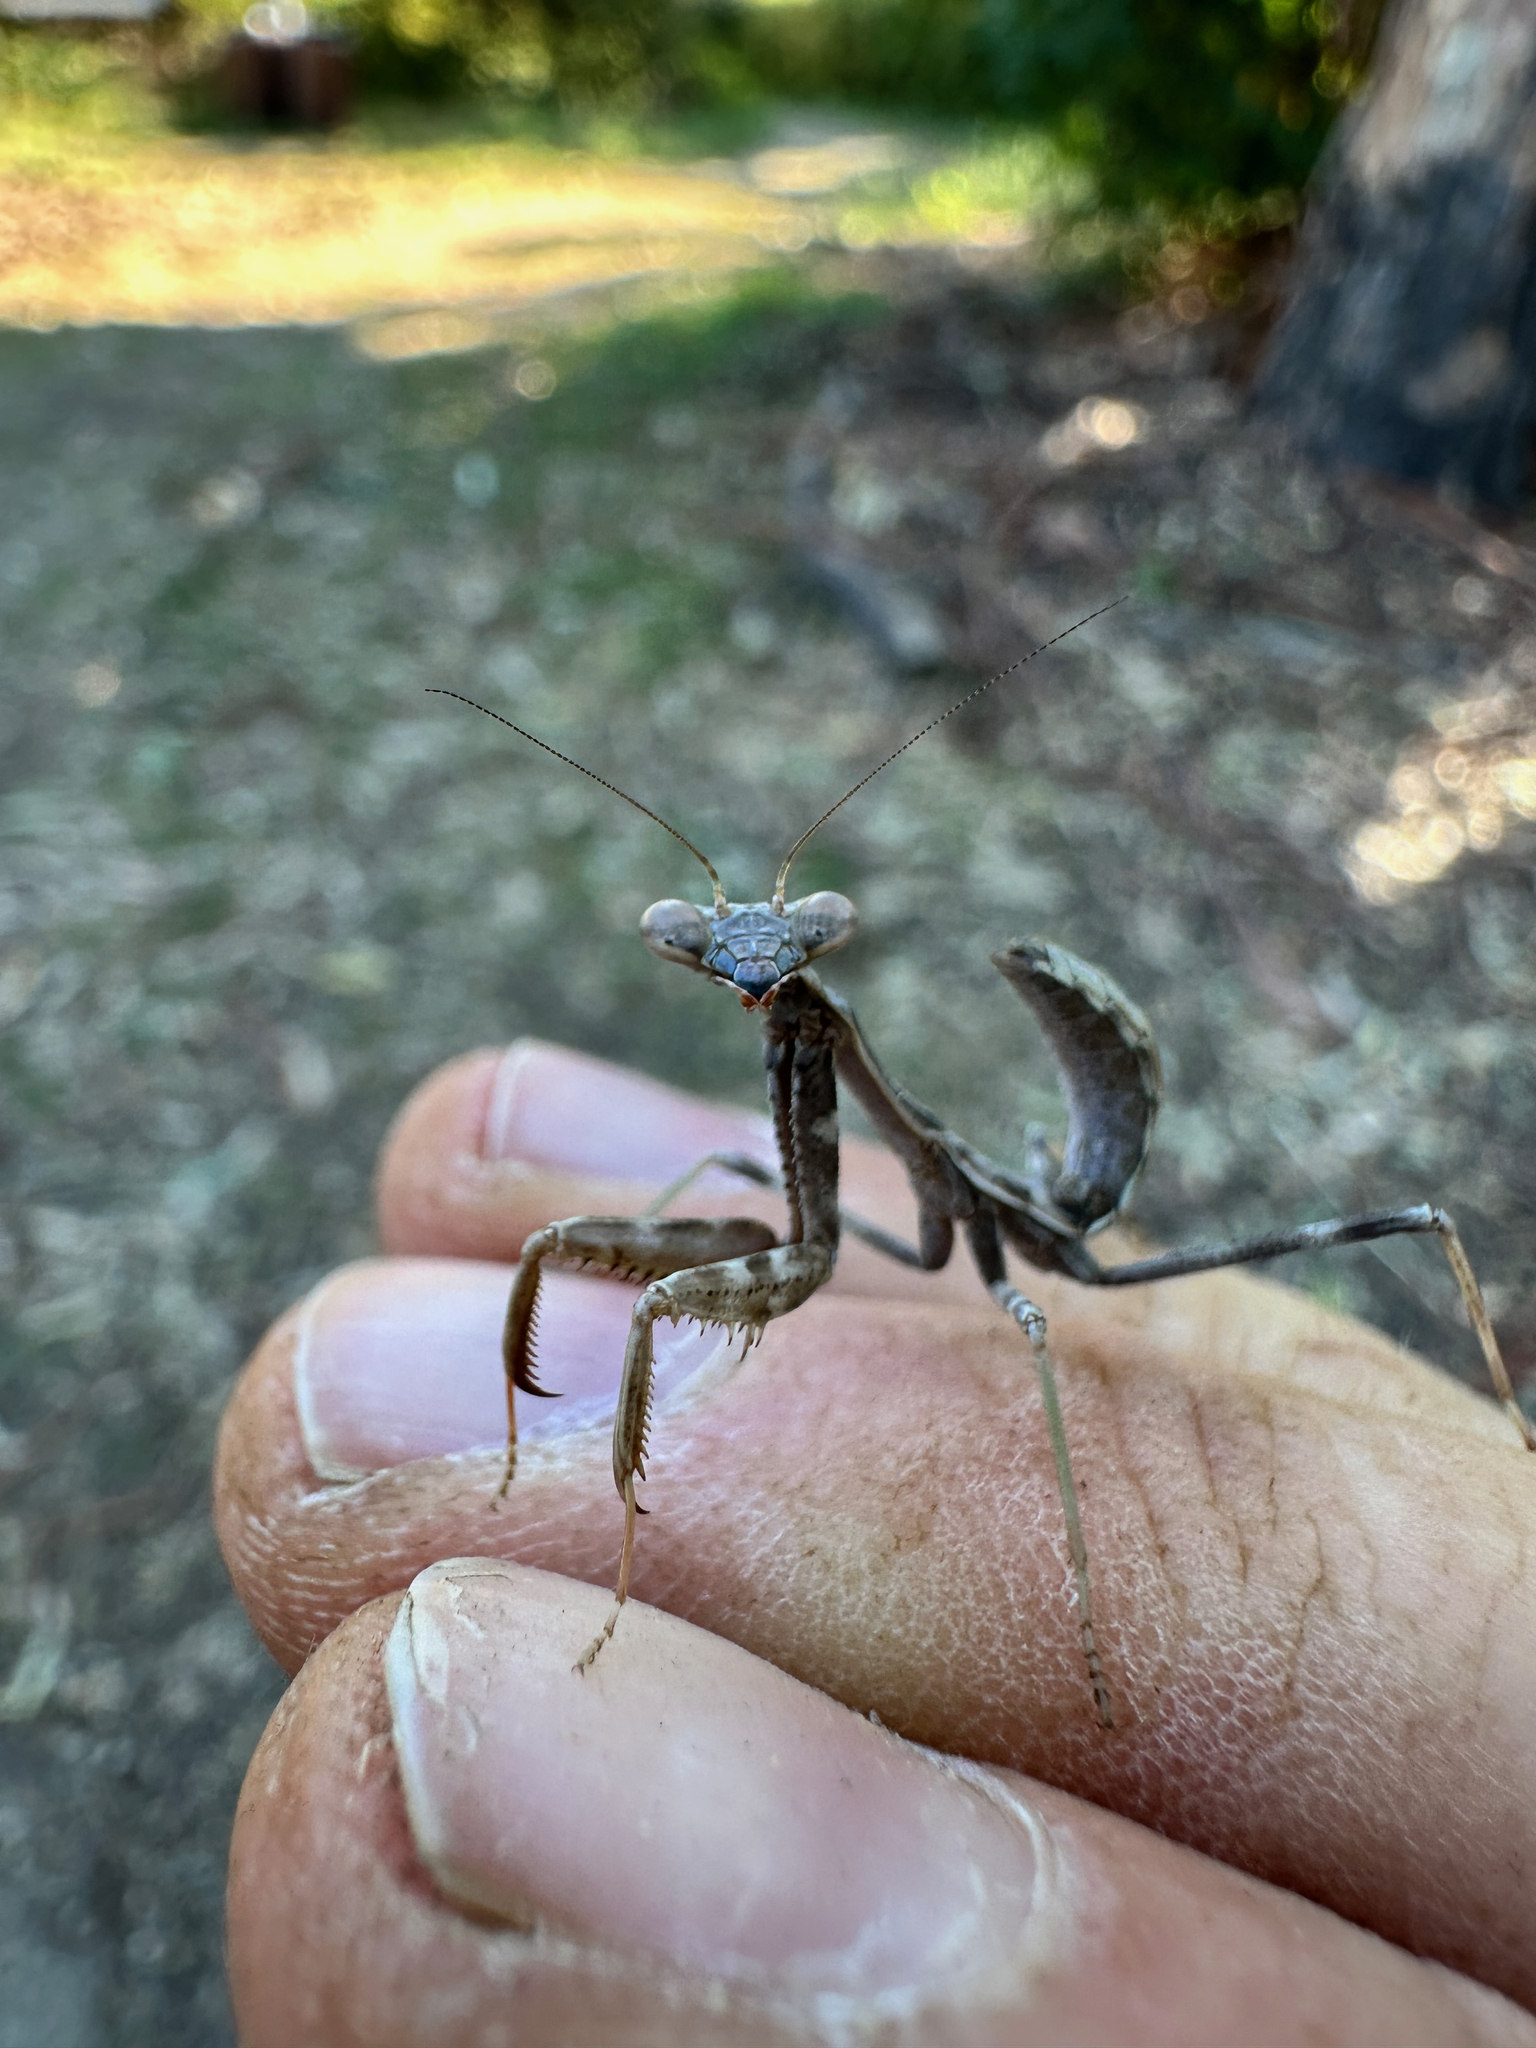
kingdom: Animalia
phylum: Arthropoda
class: Insecta
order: Mantodea
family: Mantidae
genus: Stagmomantis
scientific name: Stagmomantis limbata
